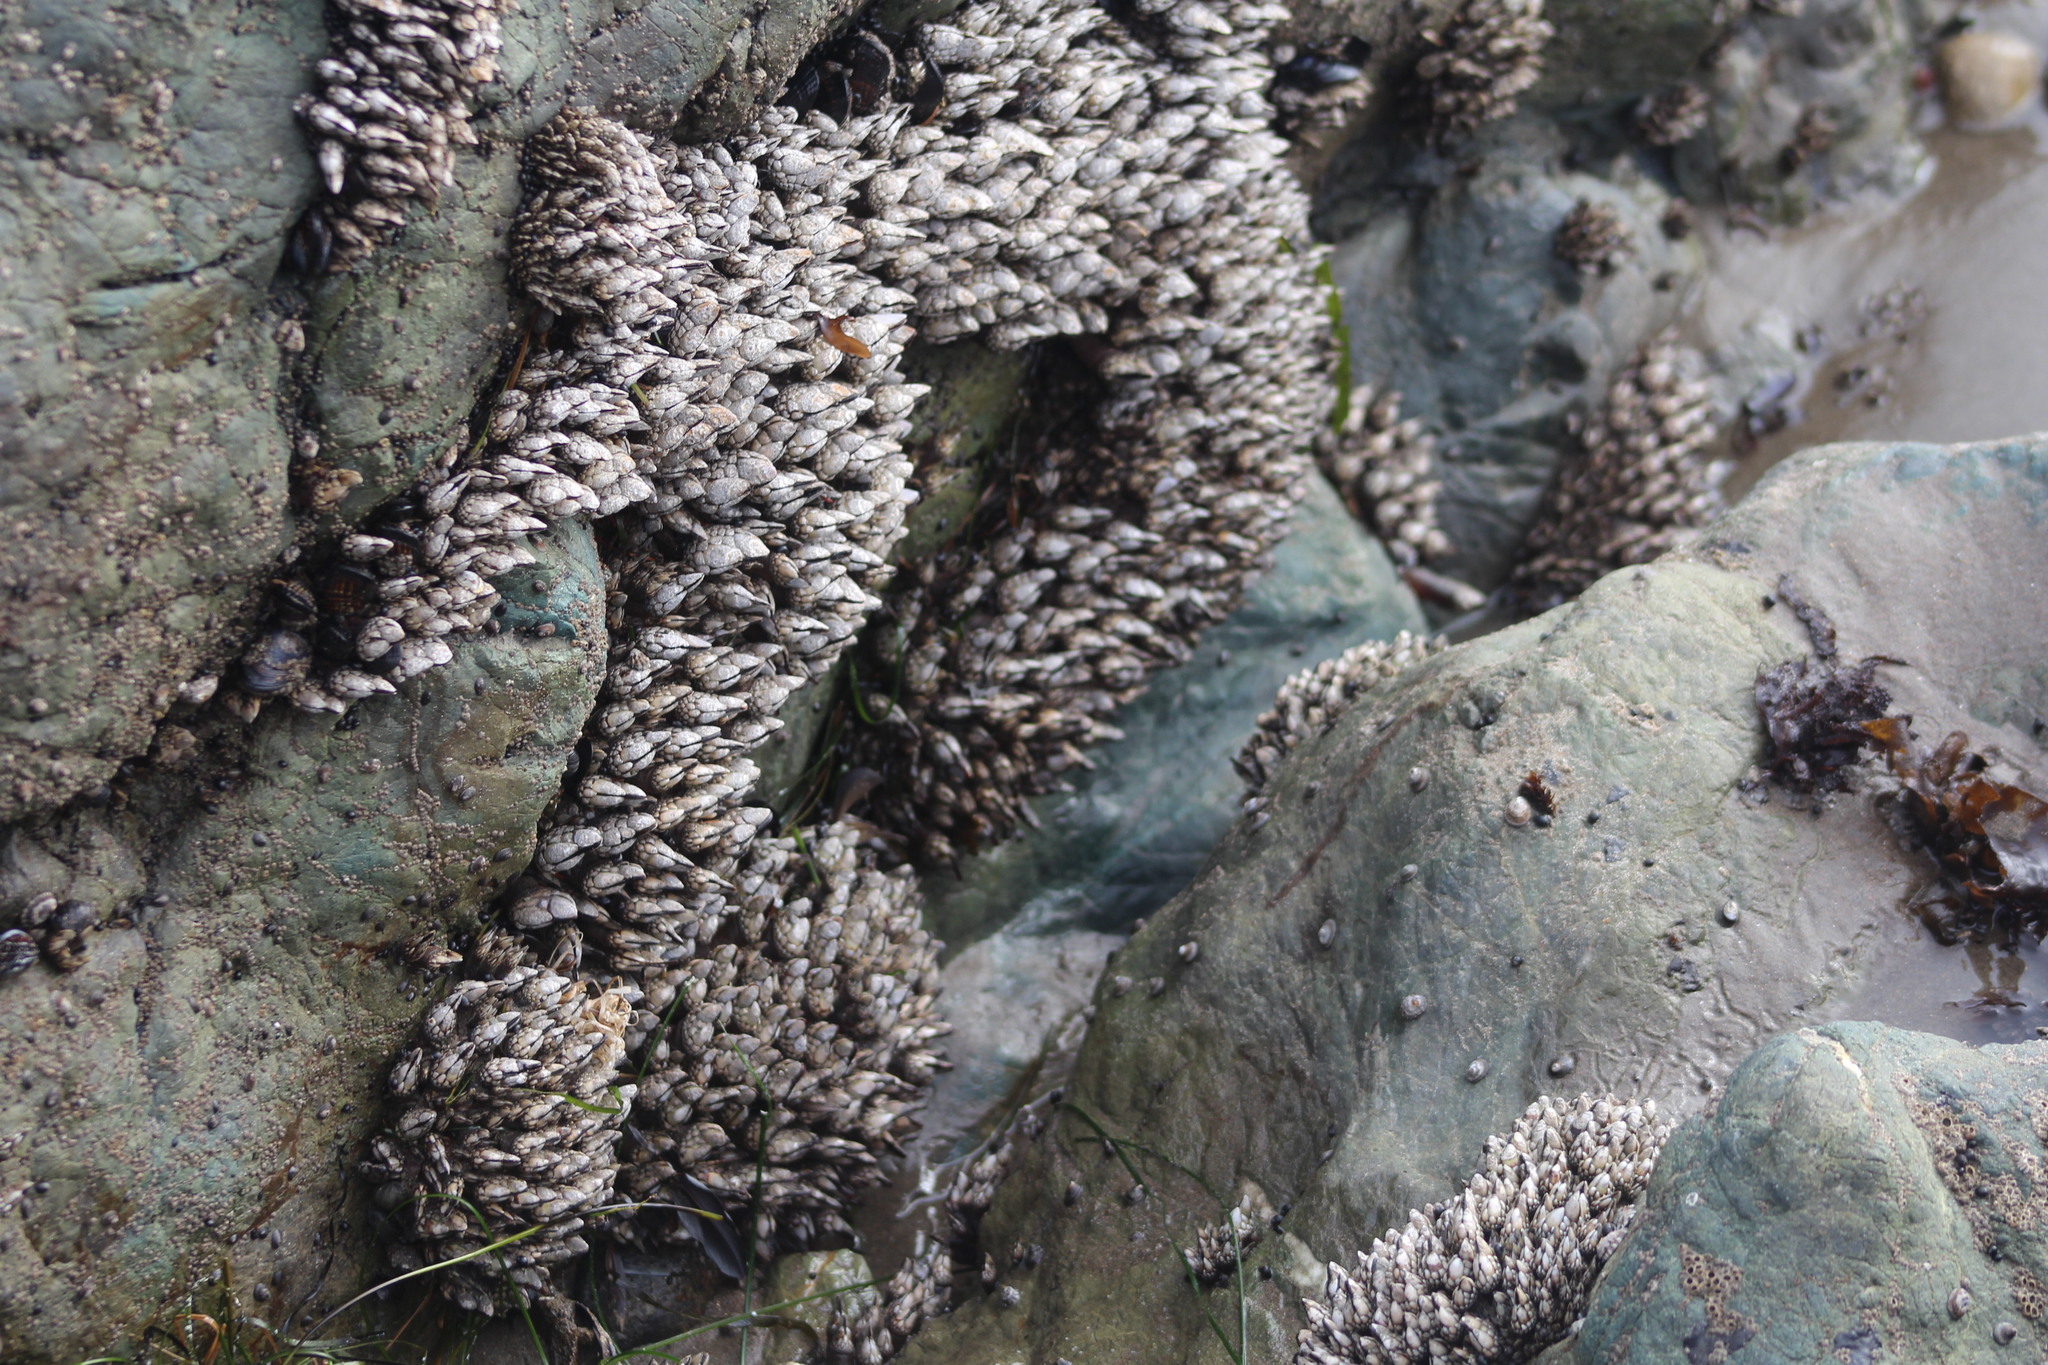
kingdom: Animalia
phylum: Arthropoda
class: Maxillopoda
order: Pedunculata
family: Pollicipedidae
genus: Pollicipes
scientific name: Pollicipes polymerus
